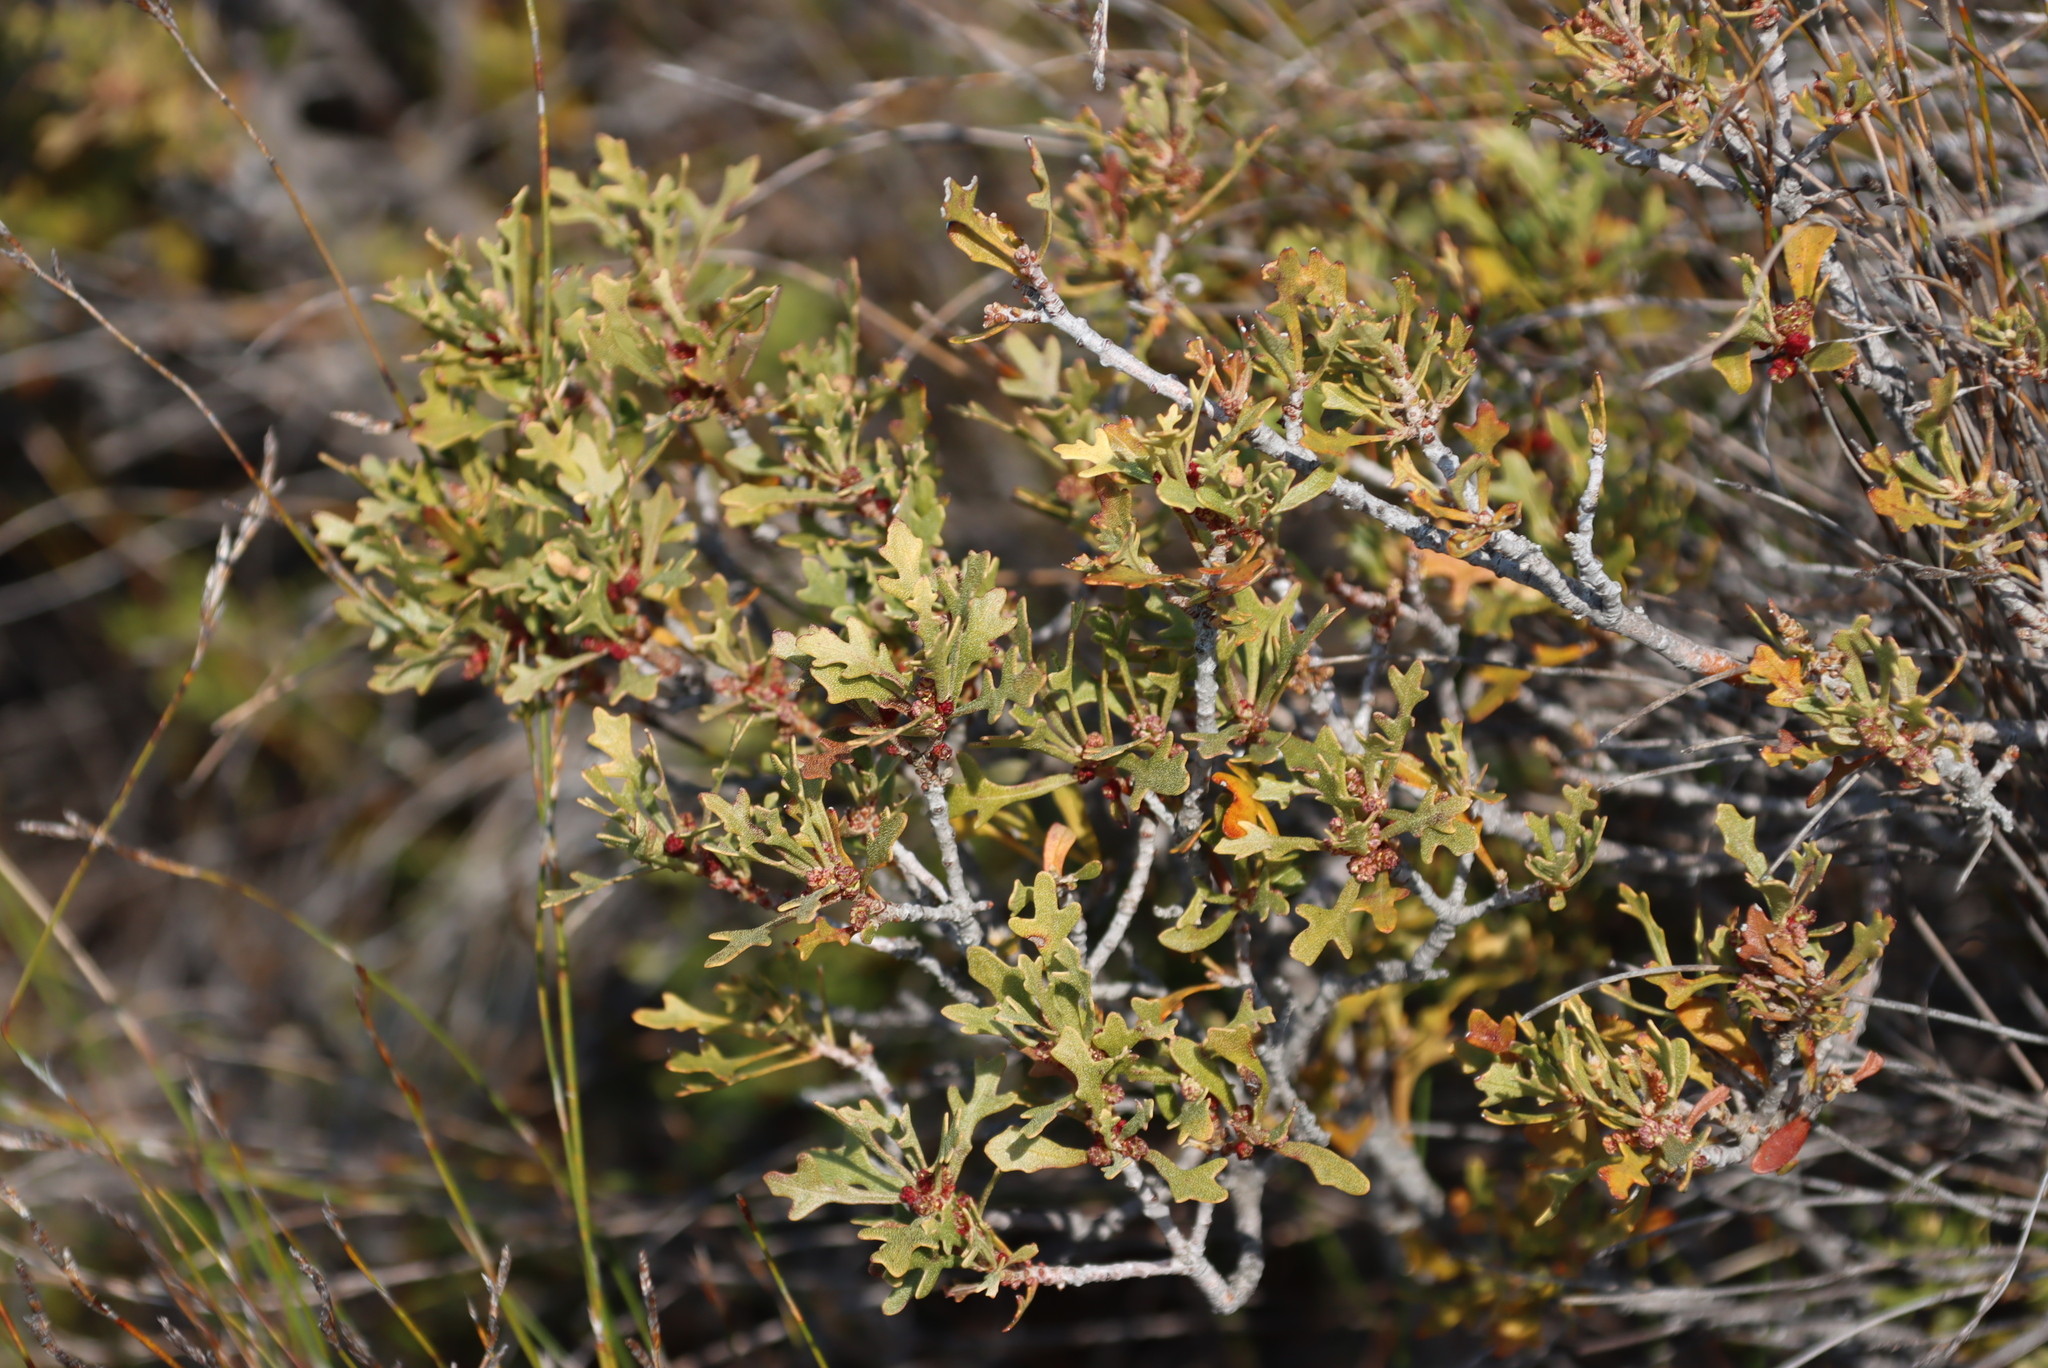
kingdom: Plantae
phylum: Tracheophyta
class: Magnoliopsida
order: Fagales
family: Myricaceae
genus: Morella
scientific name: Morella quercifolia
